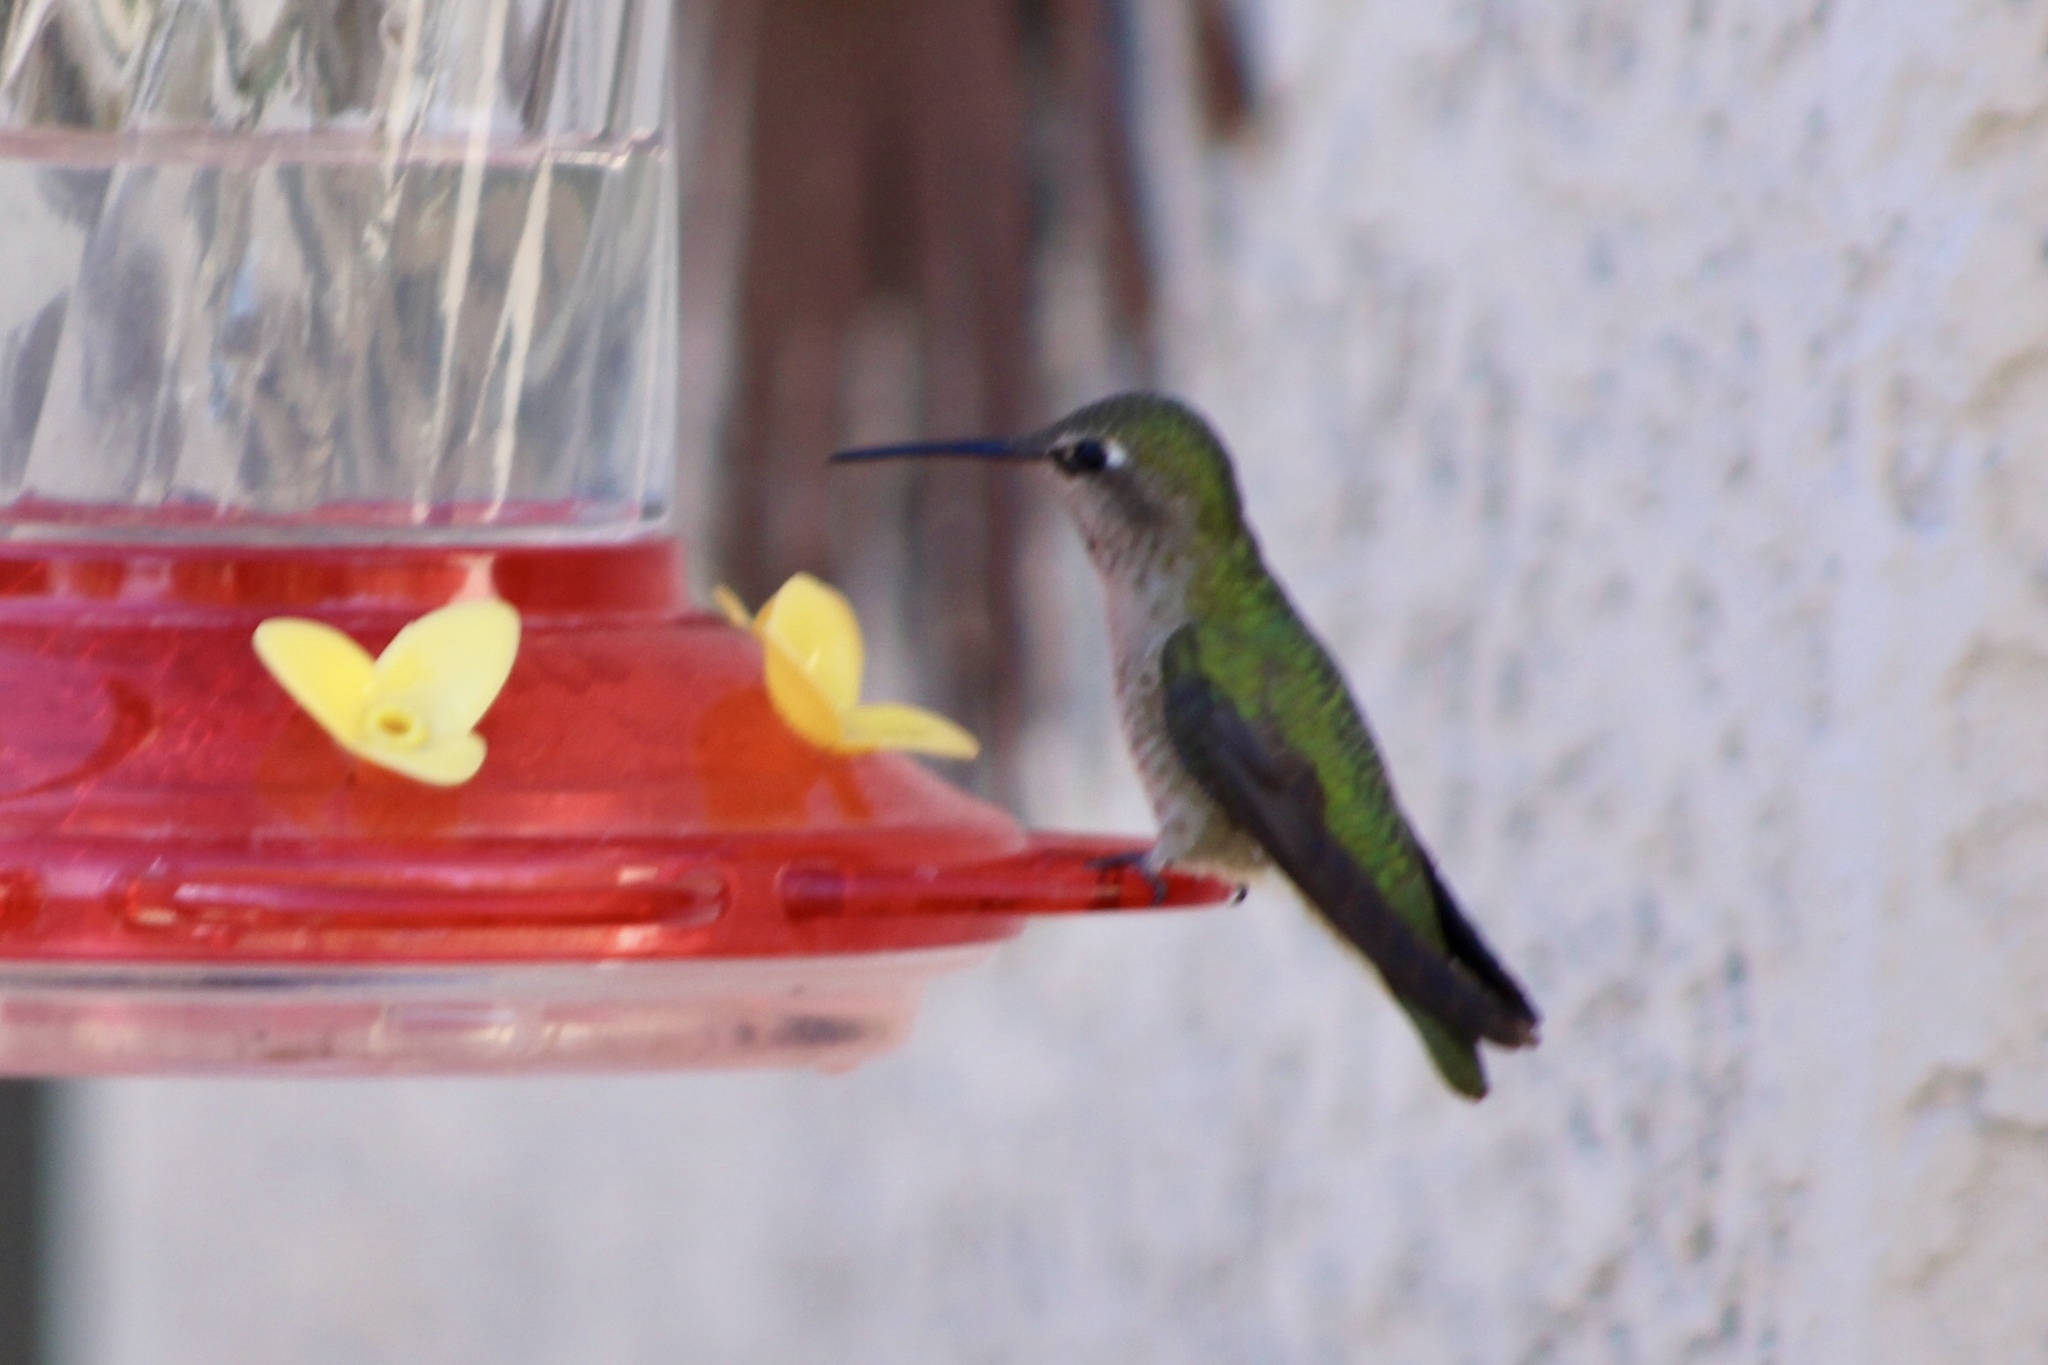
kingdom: Animalia
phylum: Chordata
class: Aves
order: Apodiformes
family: Trochilidae
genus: Calypte
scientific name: Calypte anna
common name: Anna's hummingbird
